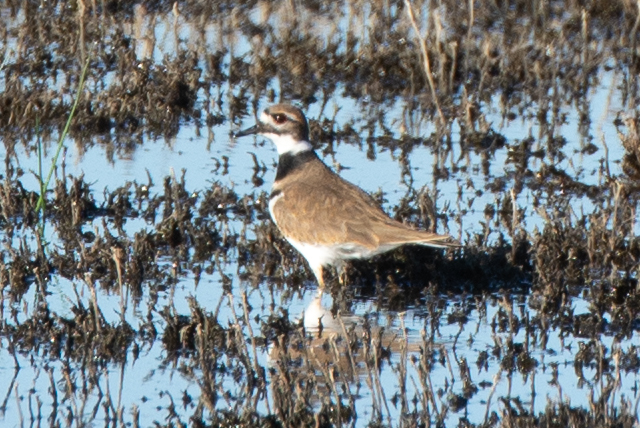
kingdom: Animalia
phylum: Chordata
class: Aves
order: Charadriiformes
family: Charadriidae
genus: Charadrius
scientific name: Charadrius vociferus
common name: Killdeer
